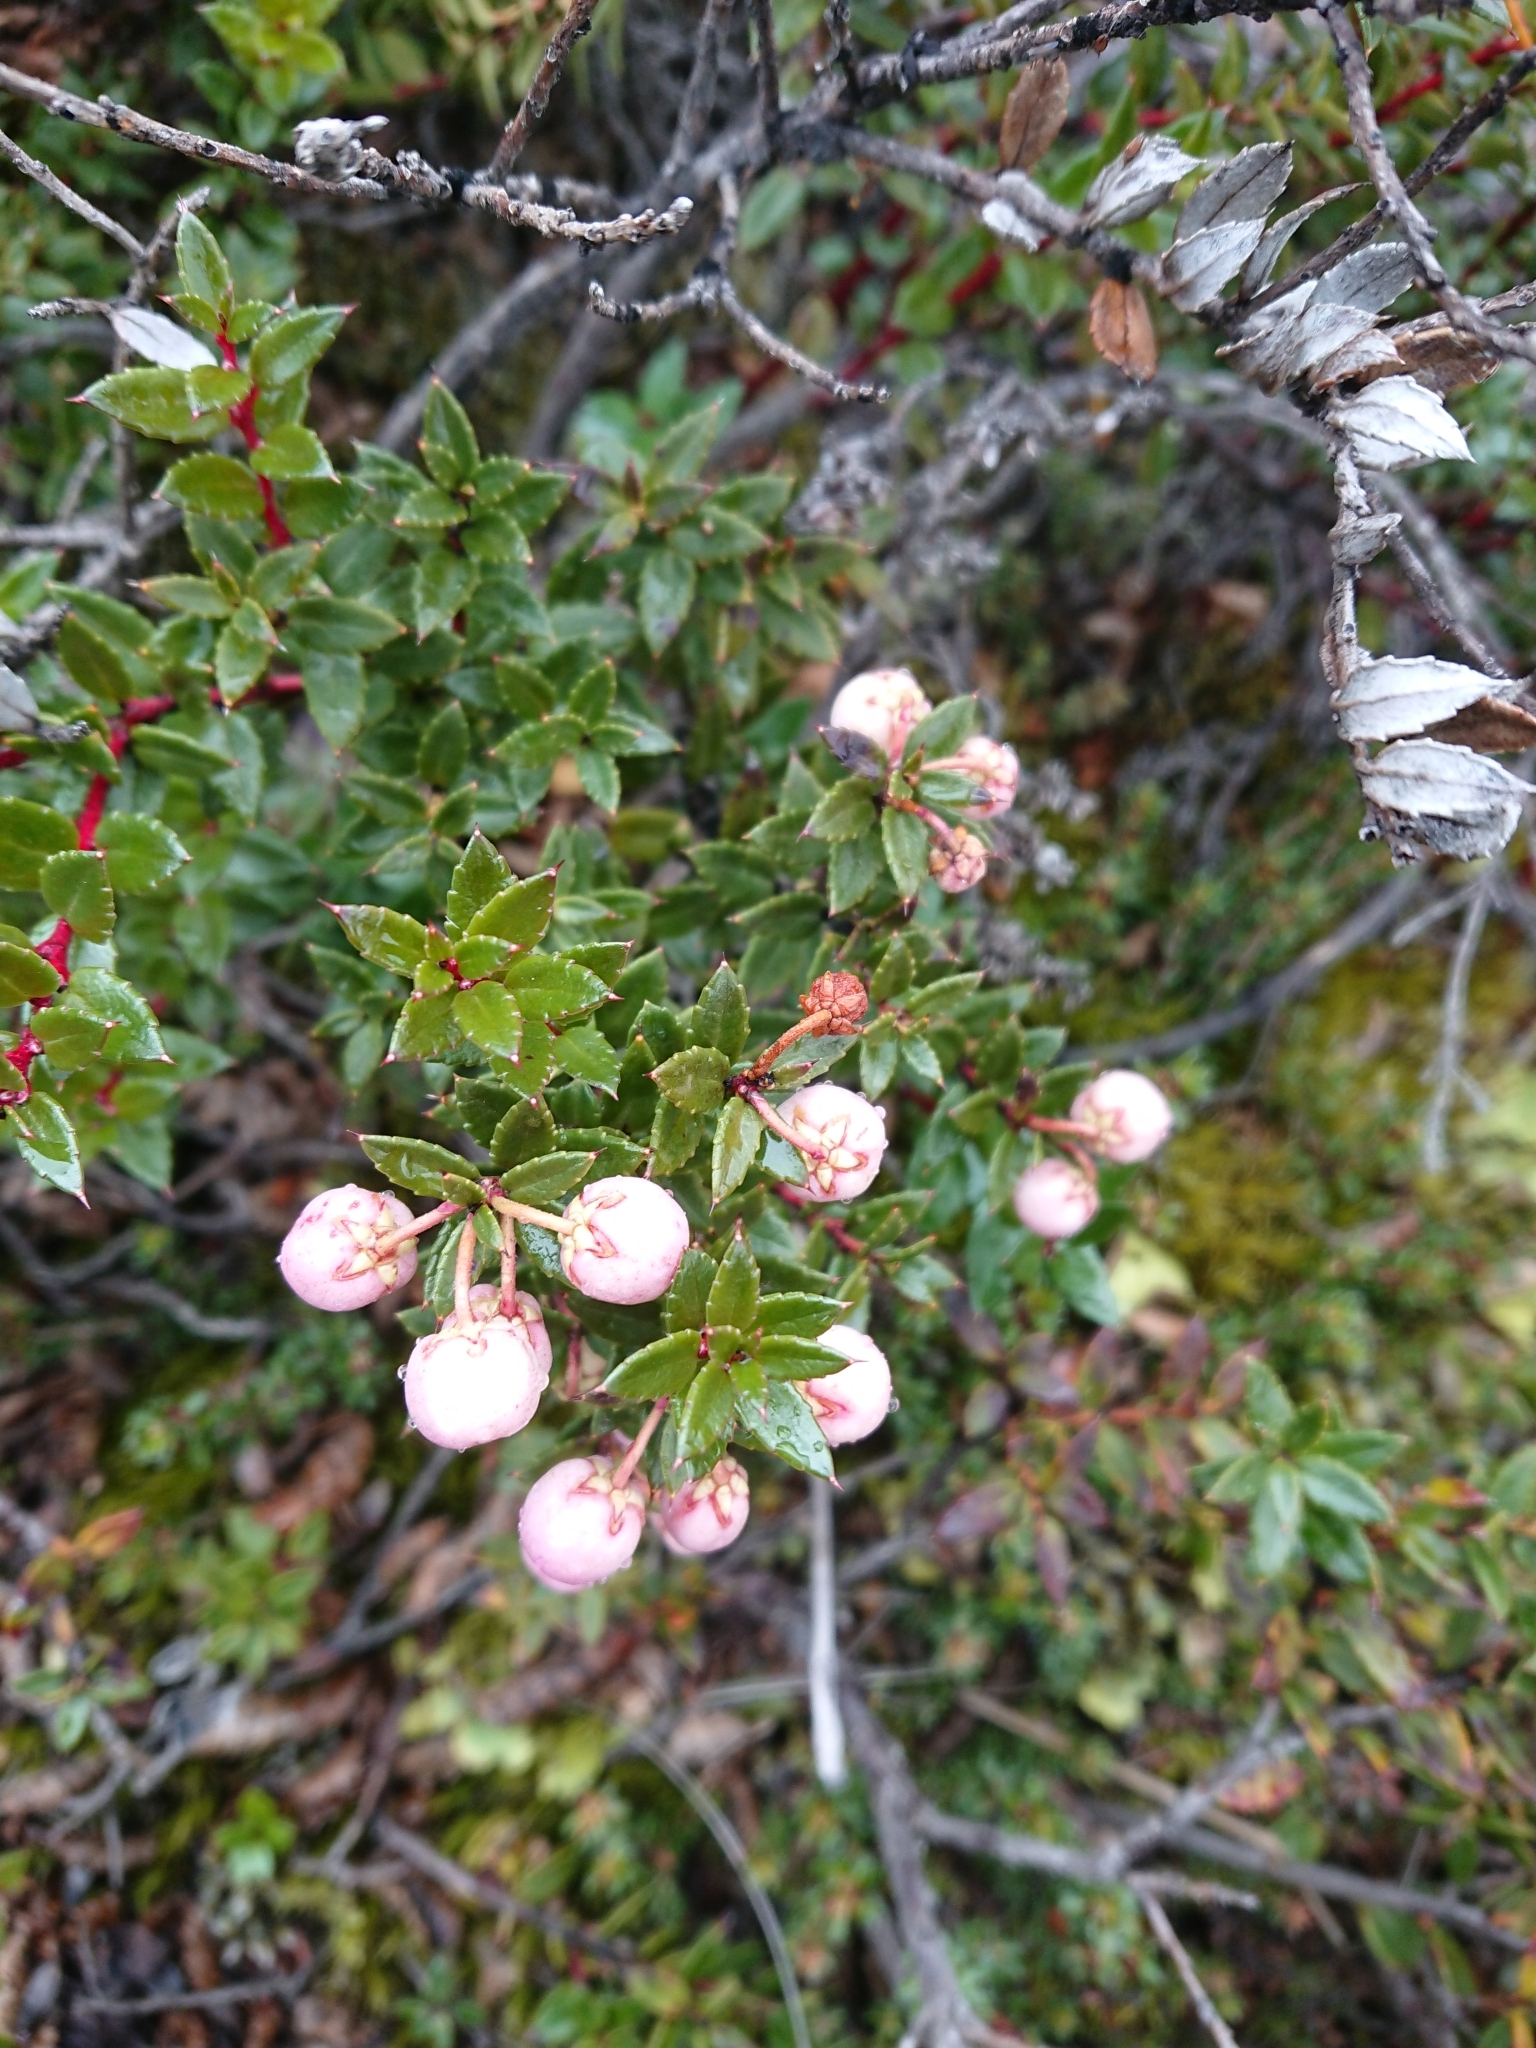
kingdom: Plantae
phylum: Tracheophyta
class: Magnoliopsida
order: Ericales
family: Ericaceae
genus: Gaultheria
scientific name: Gaultheria mucronata
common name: Prickly heath
